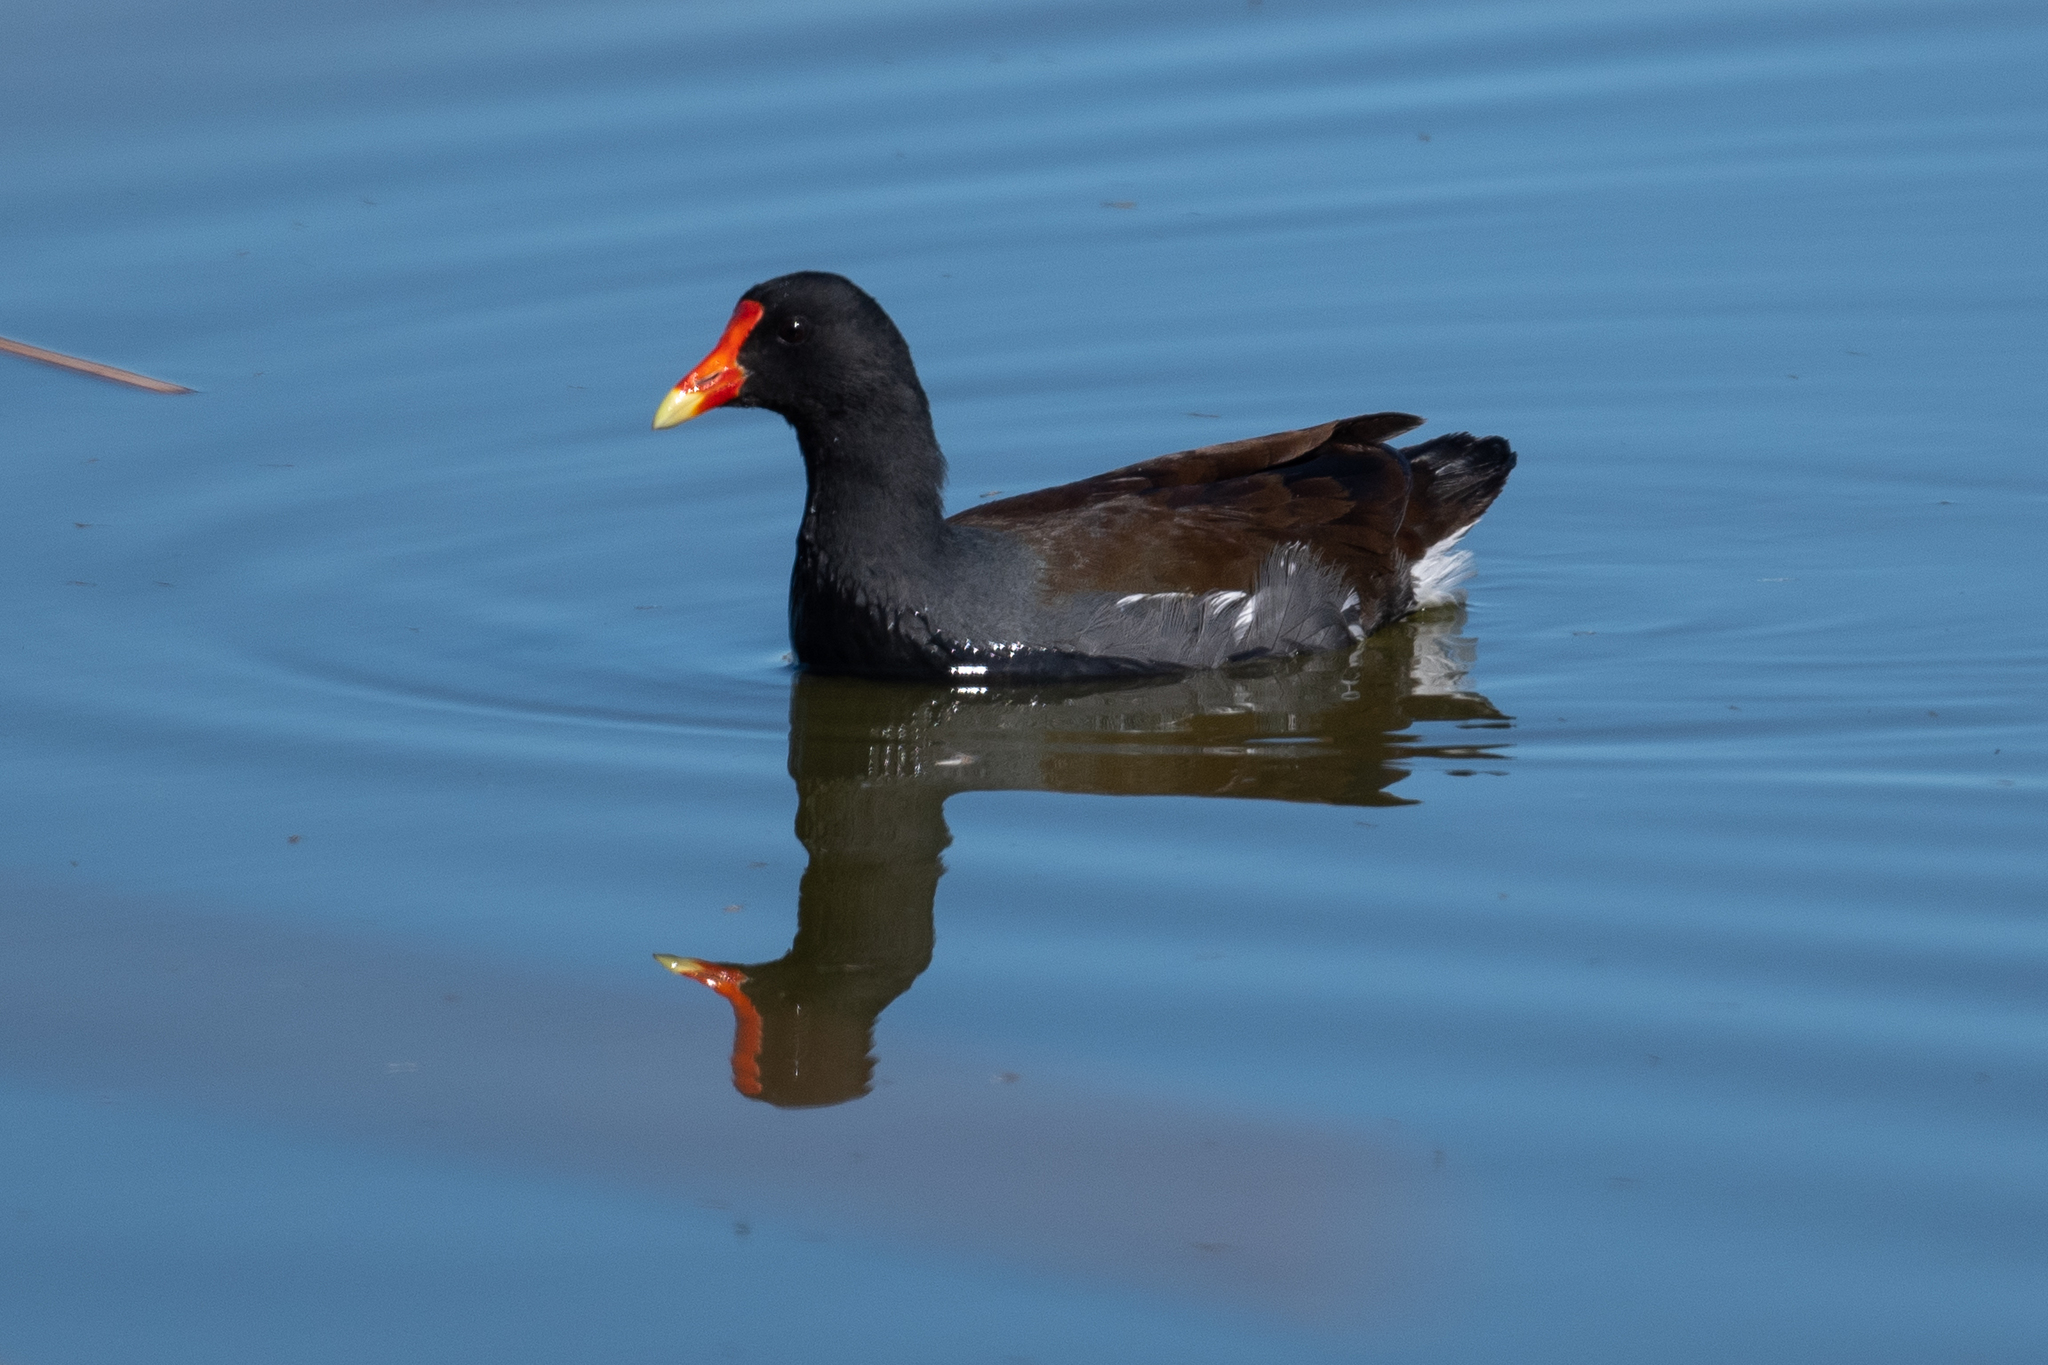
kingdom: Animalia
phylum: Chordata
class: Aves
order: Gruiformes
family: Rallidae
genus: Gallinula
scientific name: Gallinula chloropus
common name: Common moorhen
